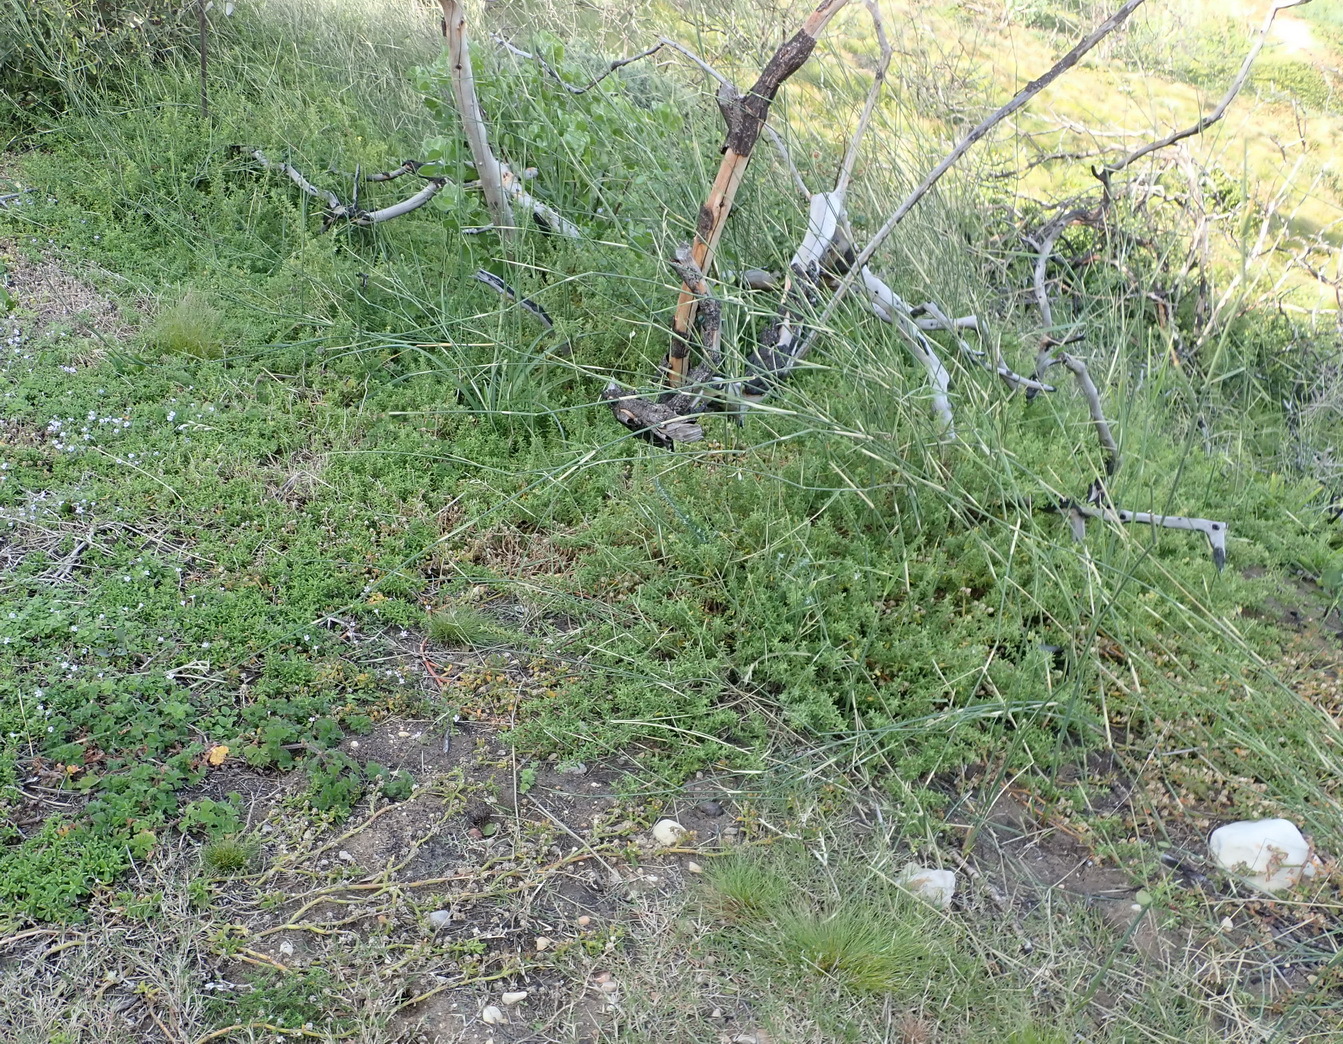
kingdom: Plantae
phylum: Tracheophyta
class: Liliopsida
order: Poales
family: Poaceae
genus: Ehrharta
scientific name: Ehrharta villosa
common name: Pyp grass
